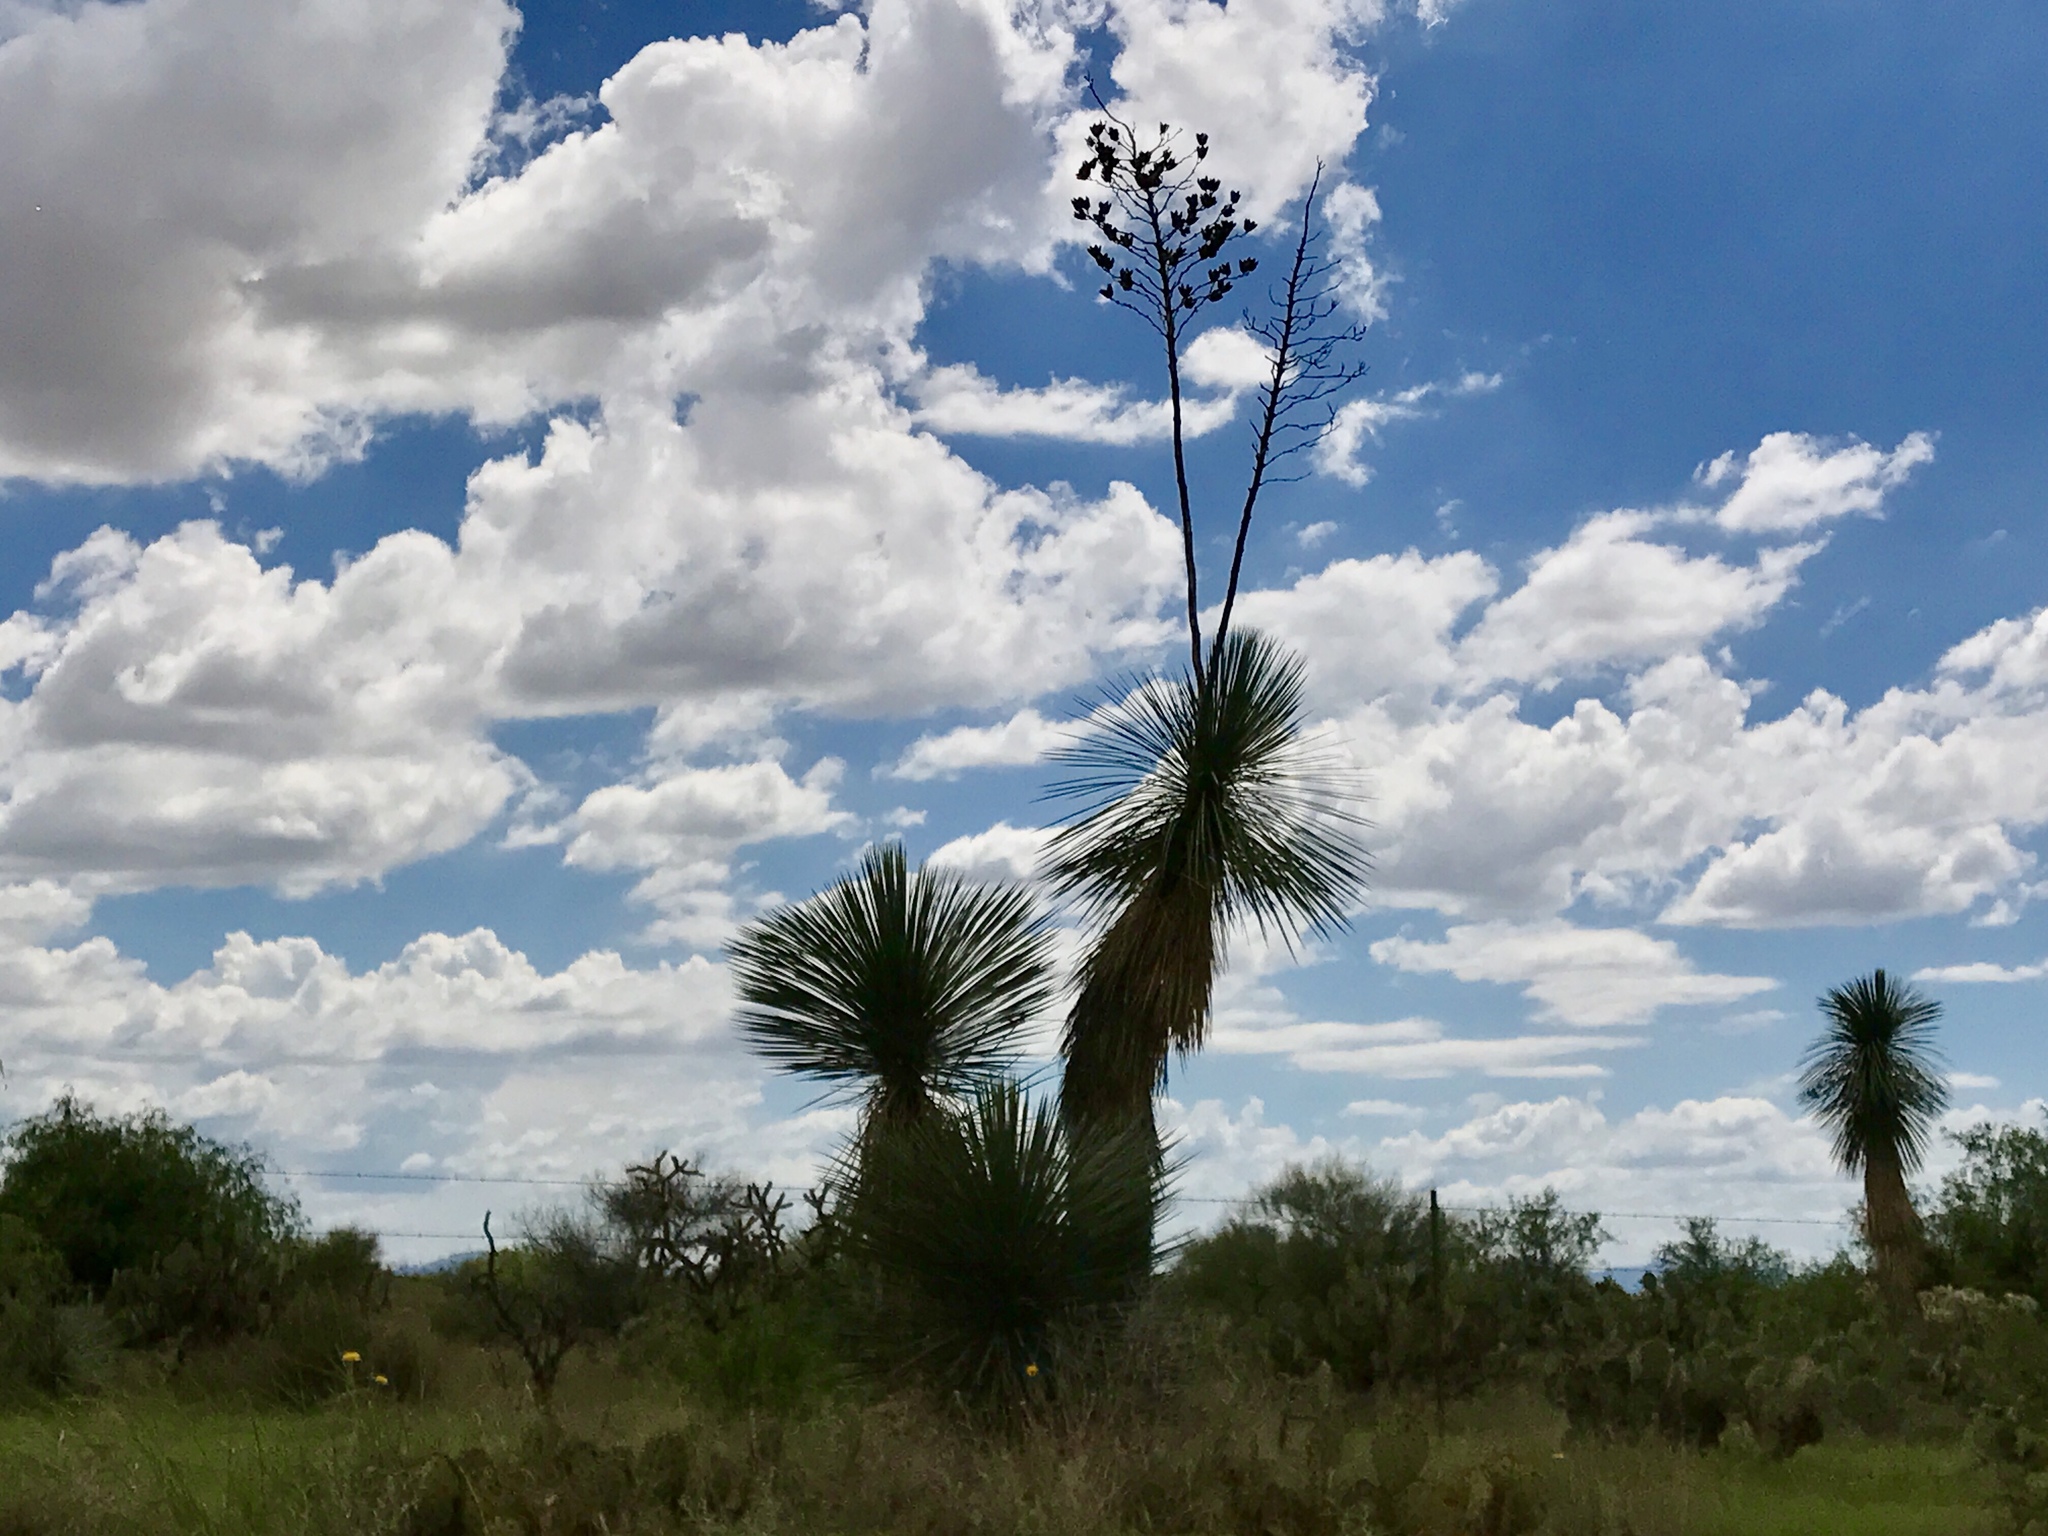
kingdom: Plantae
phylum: Tracheophyta
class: Liliopsida
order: Asparagales
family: Asparagaceae
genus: Yucca
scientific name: Yucca elata
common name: Palmella
